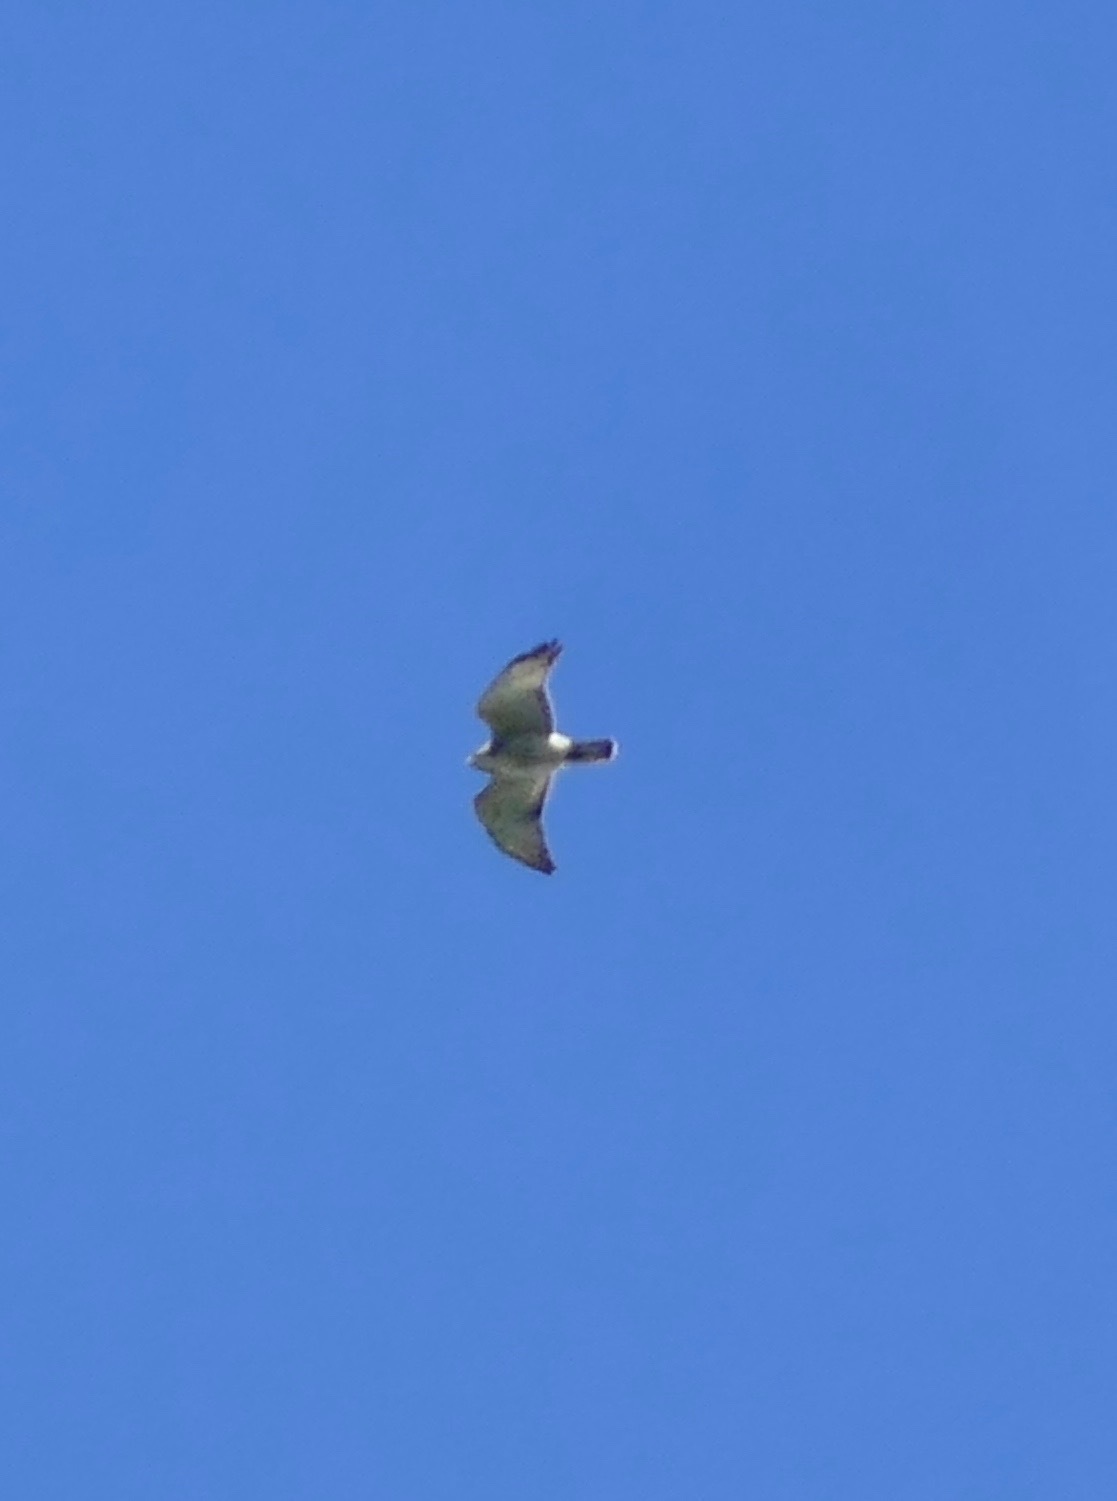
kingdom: Animalia
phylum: Chordata
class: Aves
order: Accipitriformes
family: Accipitridae
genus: Buteo
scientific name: Buteo platypterus
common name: Broad-winged hawk
